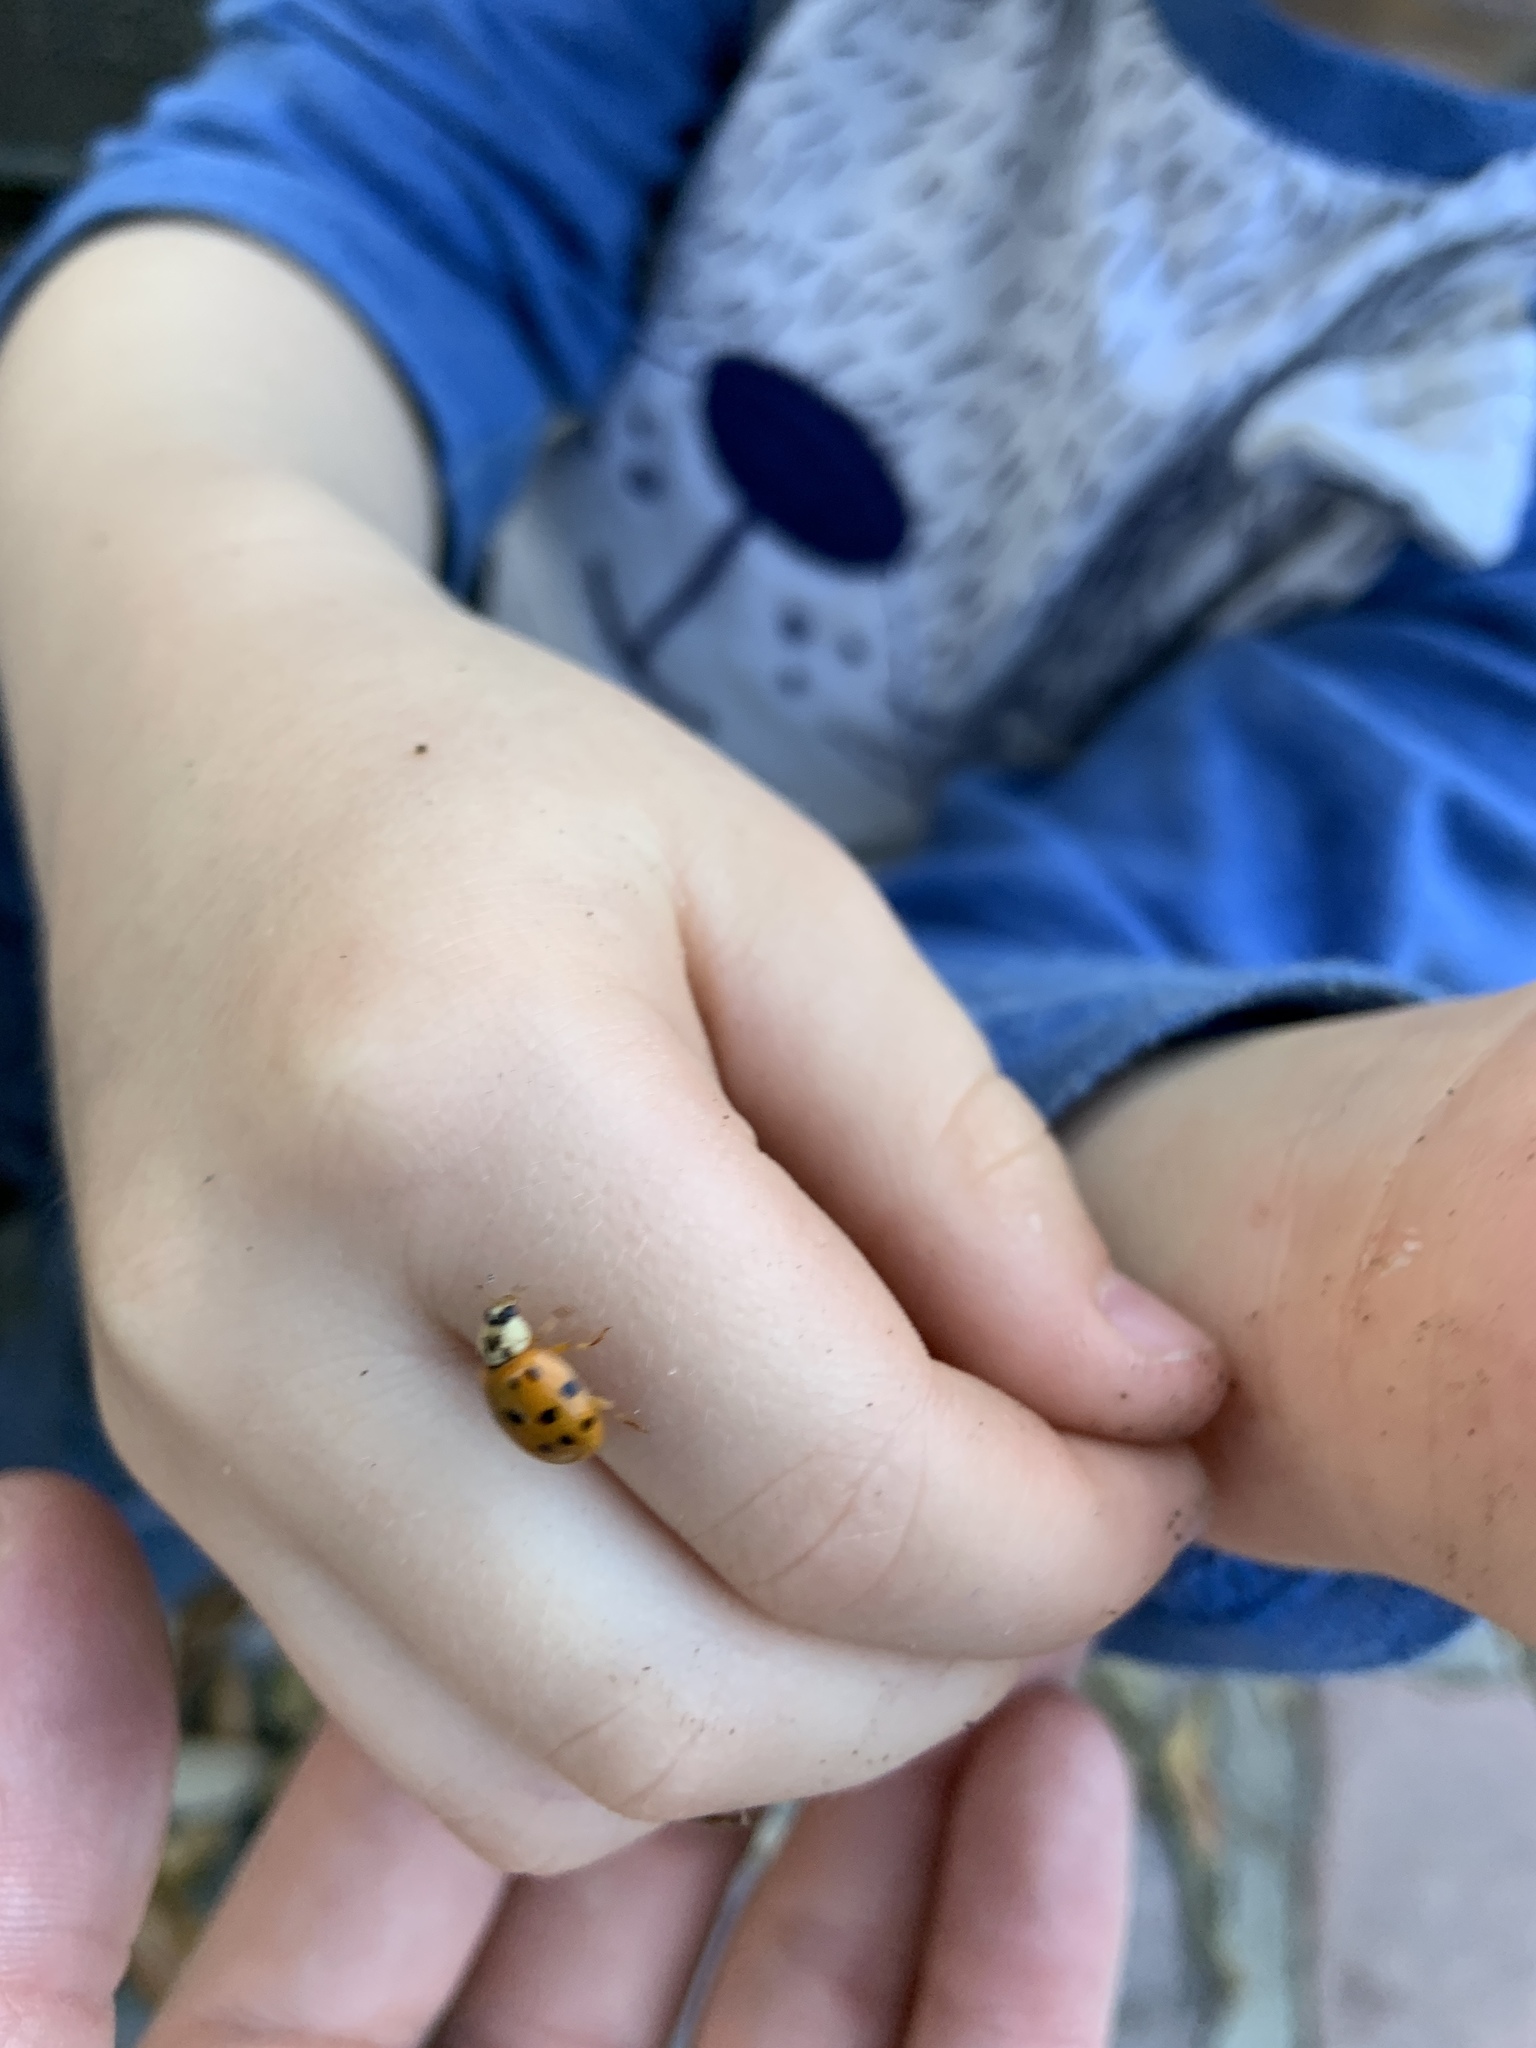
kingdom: Animalia
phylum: Arthropoda
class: Insecta
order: Coleoptera
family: Coccinellidae
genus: Harmonia
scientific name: Harmonia axyridis
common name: Harlequin ladybird
